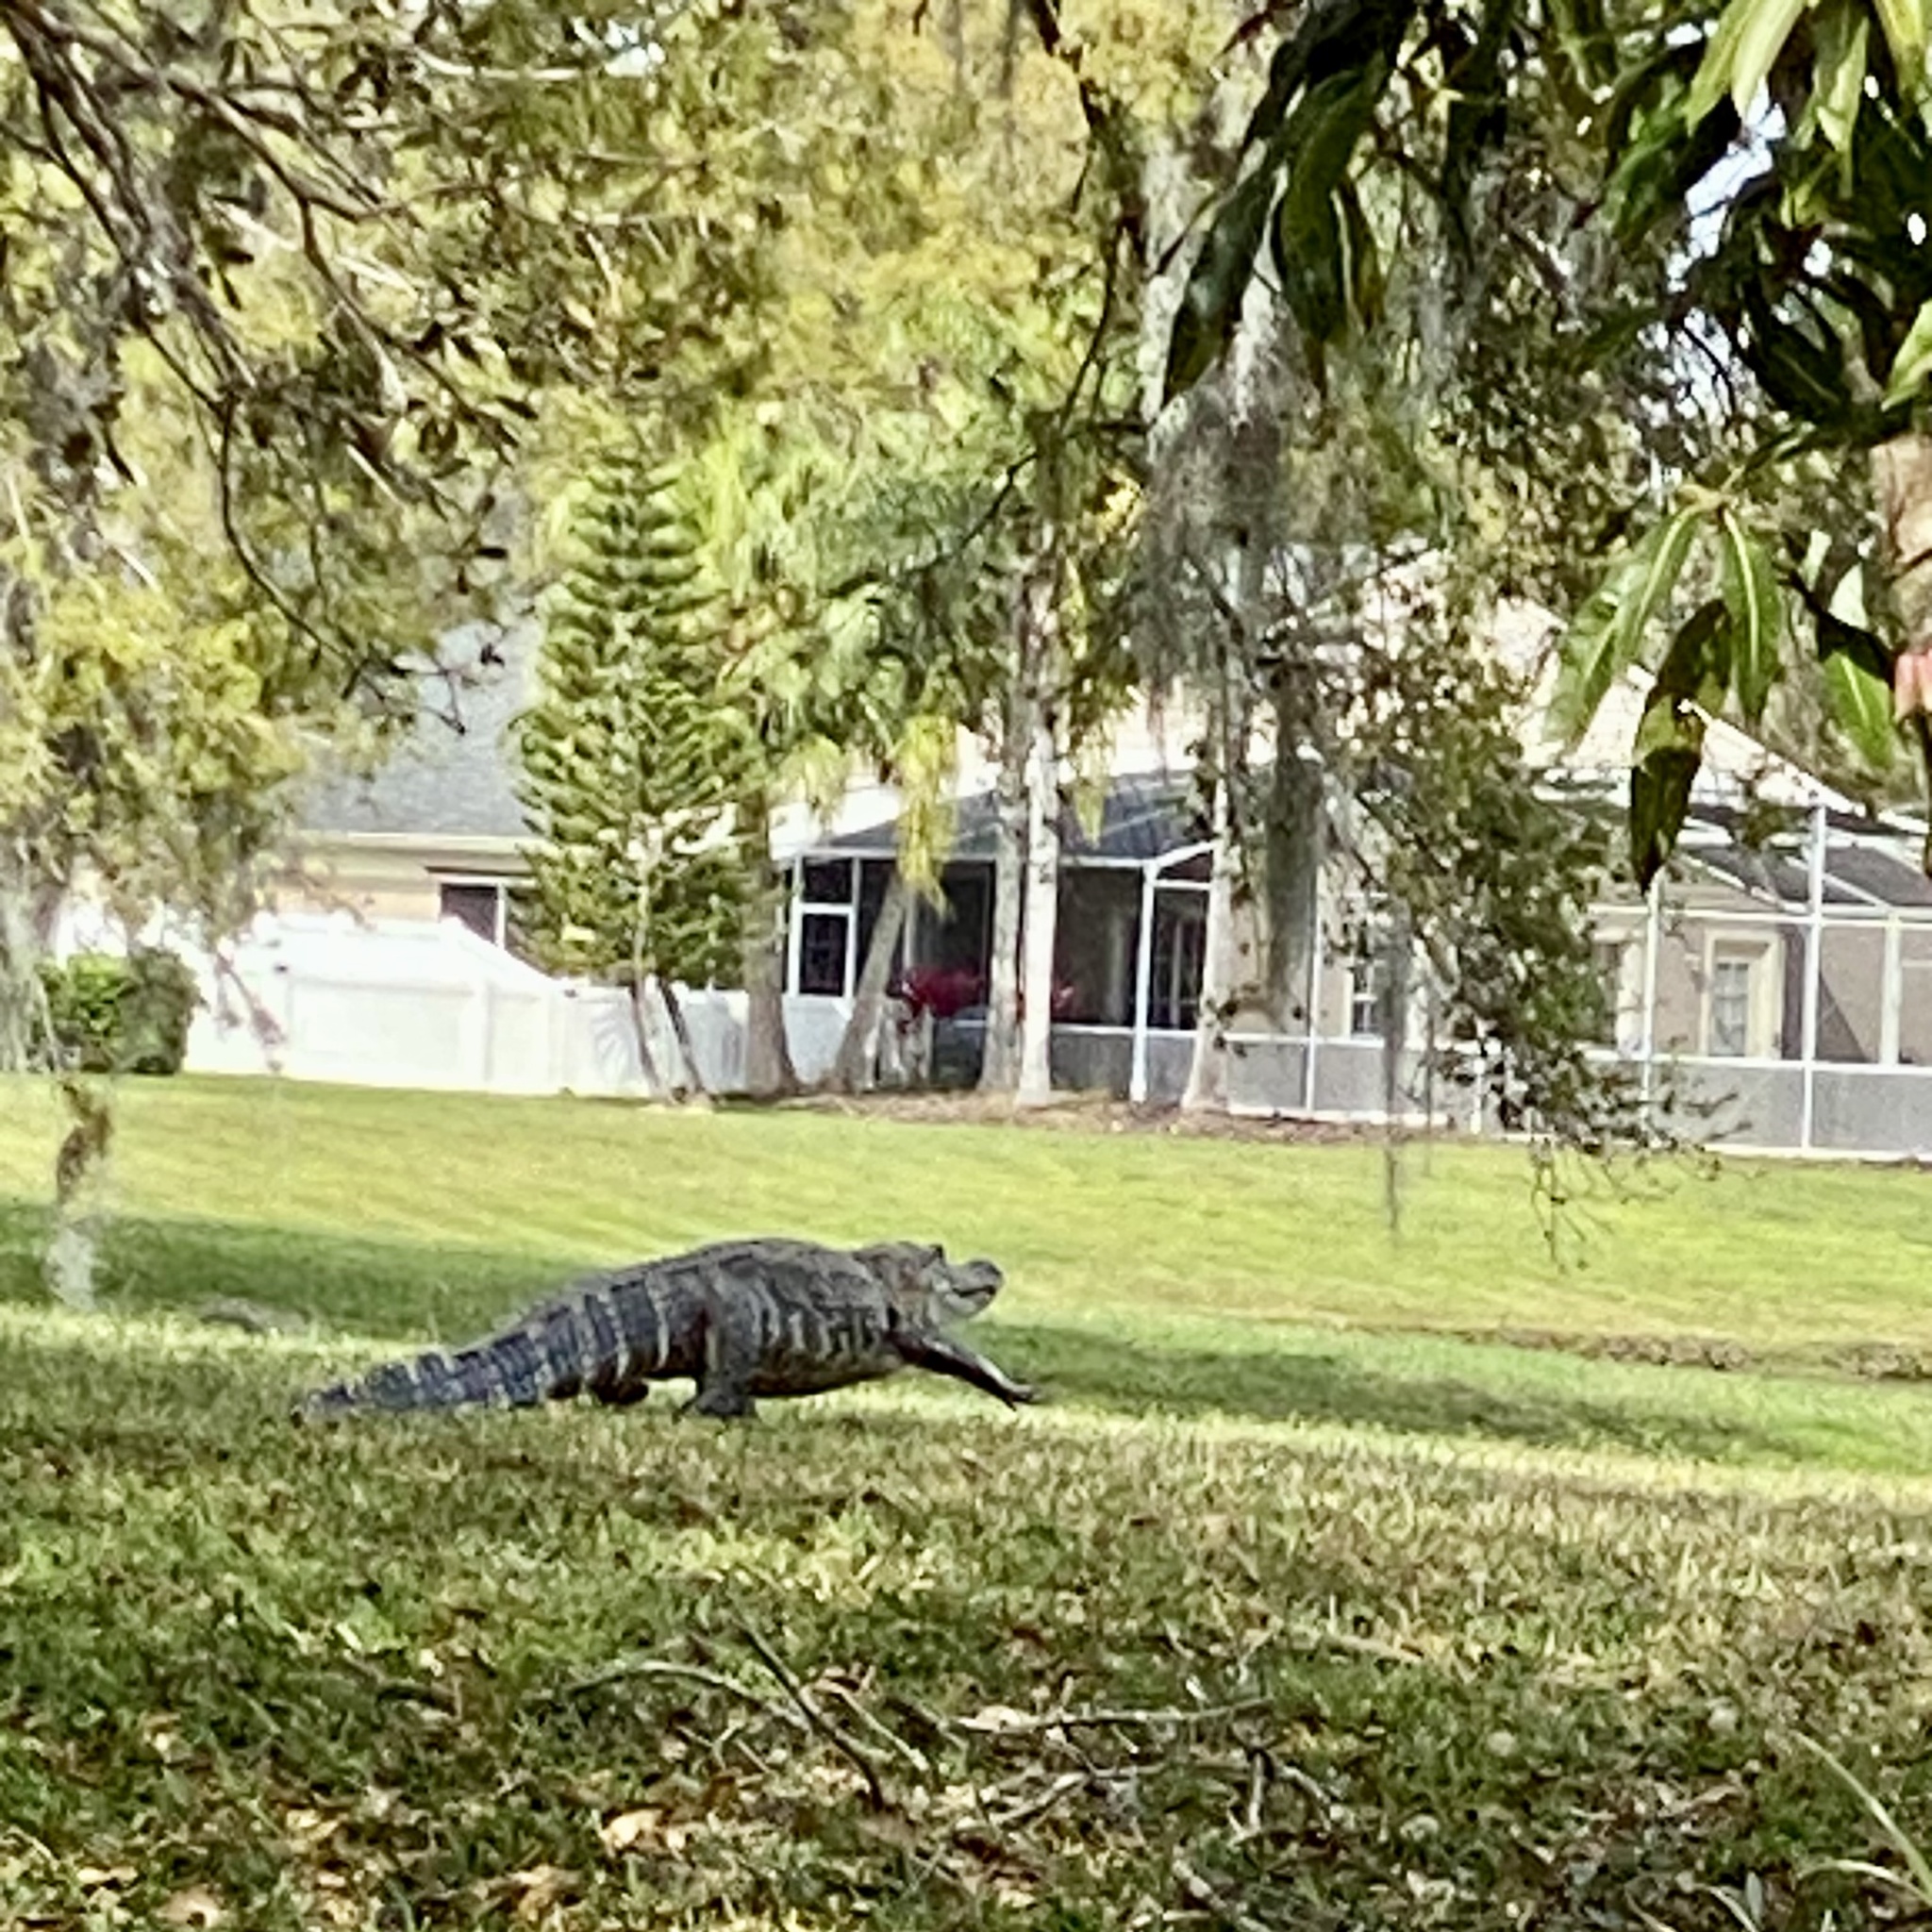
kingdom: Animalia
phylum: Chordata
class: Crocodylia
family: Alligatoridae
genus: Alligator
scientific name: Alligator mississippiensis
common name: American alligator
